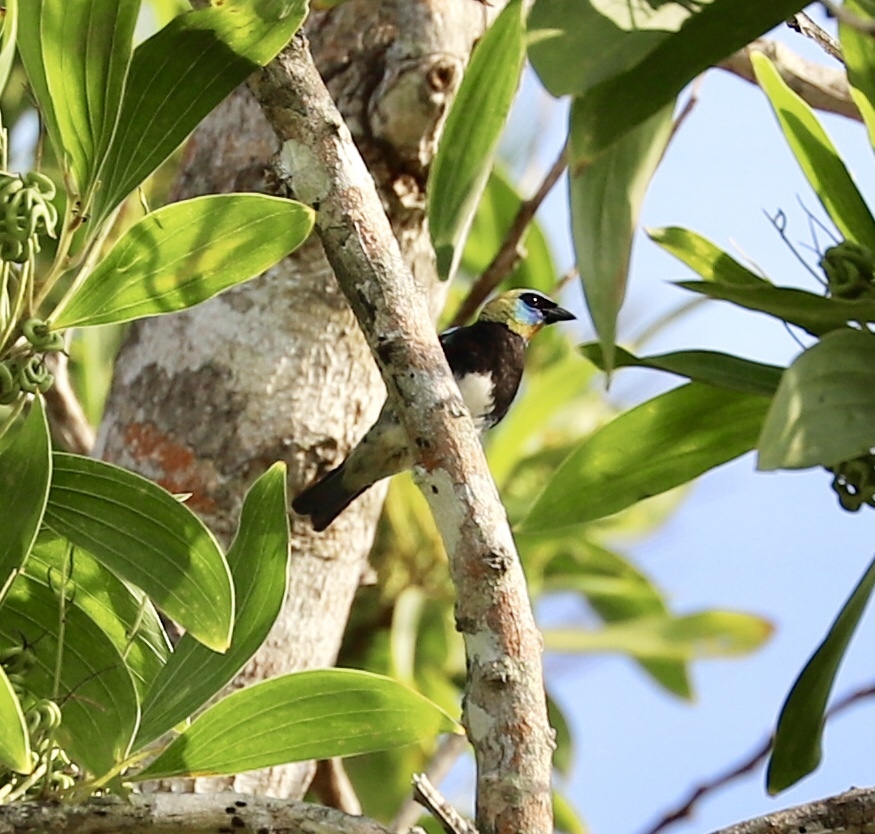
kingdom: Animalia
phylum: Chordata
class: Aves
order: Passeriformes
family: Thraupidae
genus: Stilpnia
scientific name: Stilpnia larvata
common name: Golden-hooded tanager
